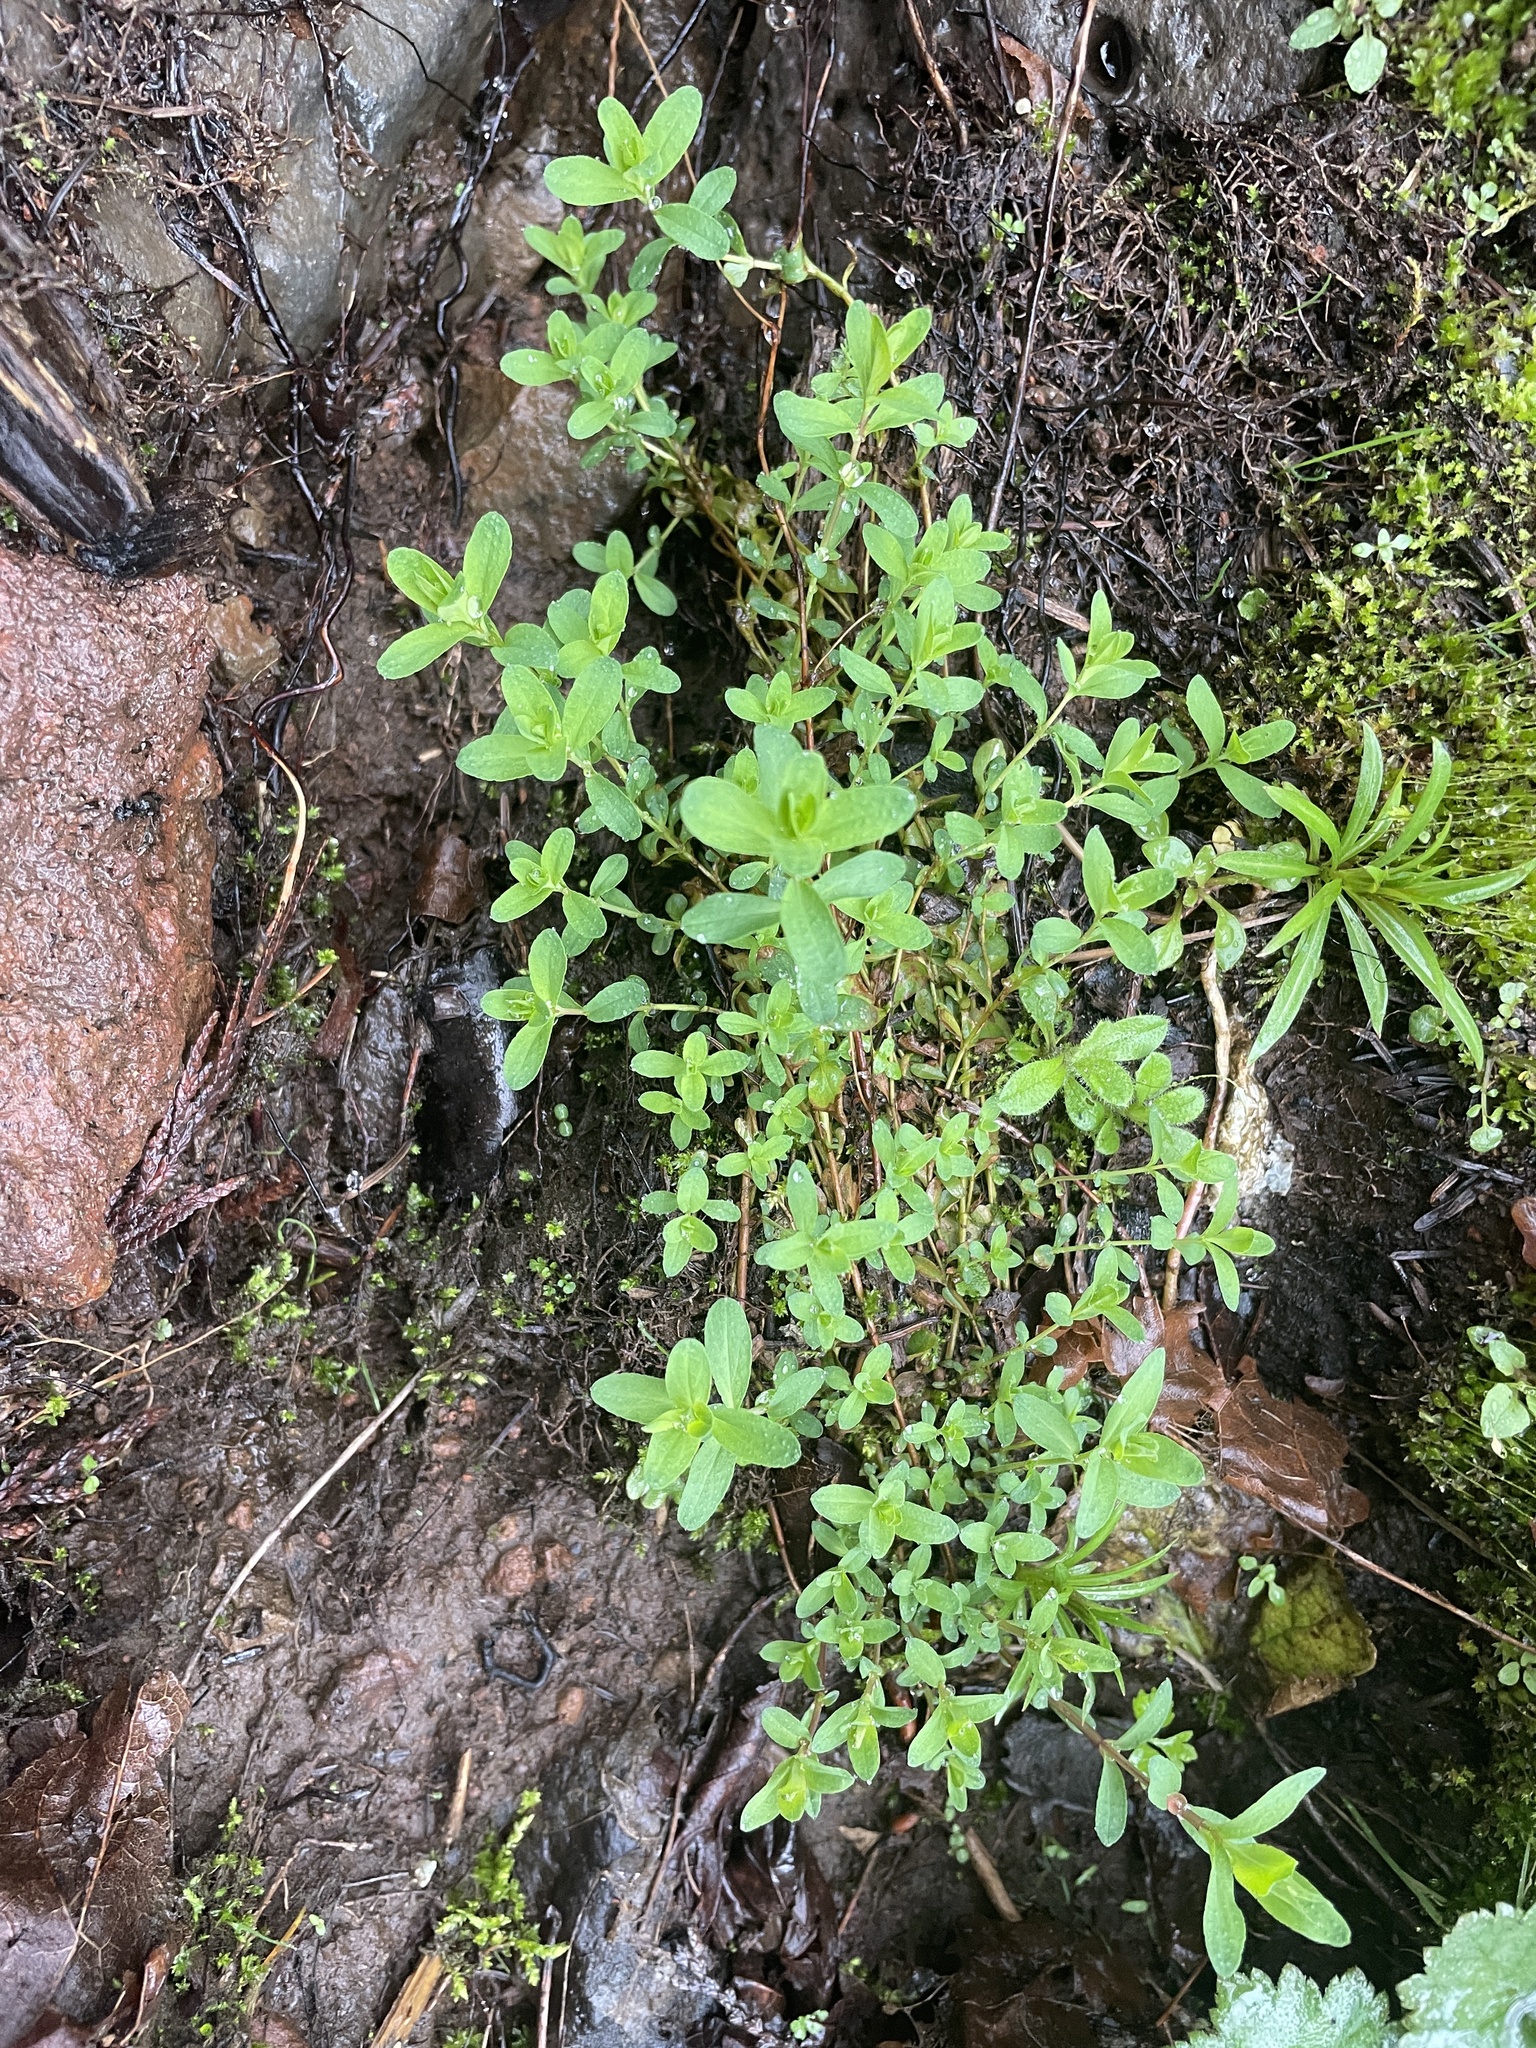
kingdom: Plantae
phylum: Tracheophyta
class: Magnoliopsida
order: Malpighiales
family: Hypericaceae
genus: Hypericum
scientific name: Hypericum perforatum
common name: Common st. johnswort
